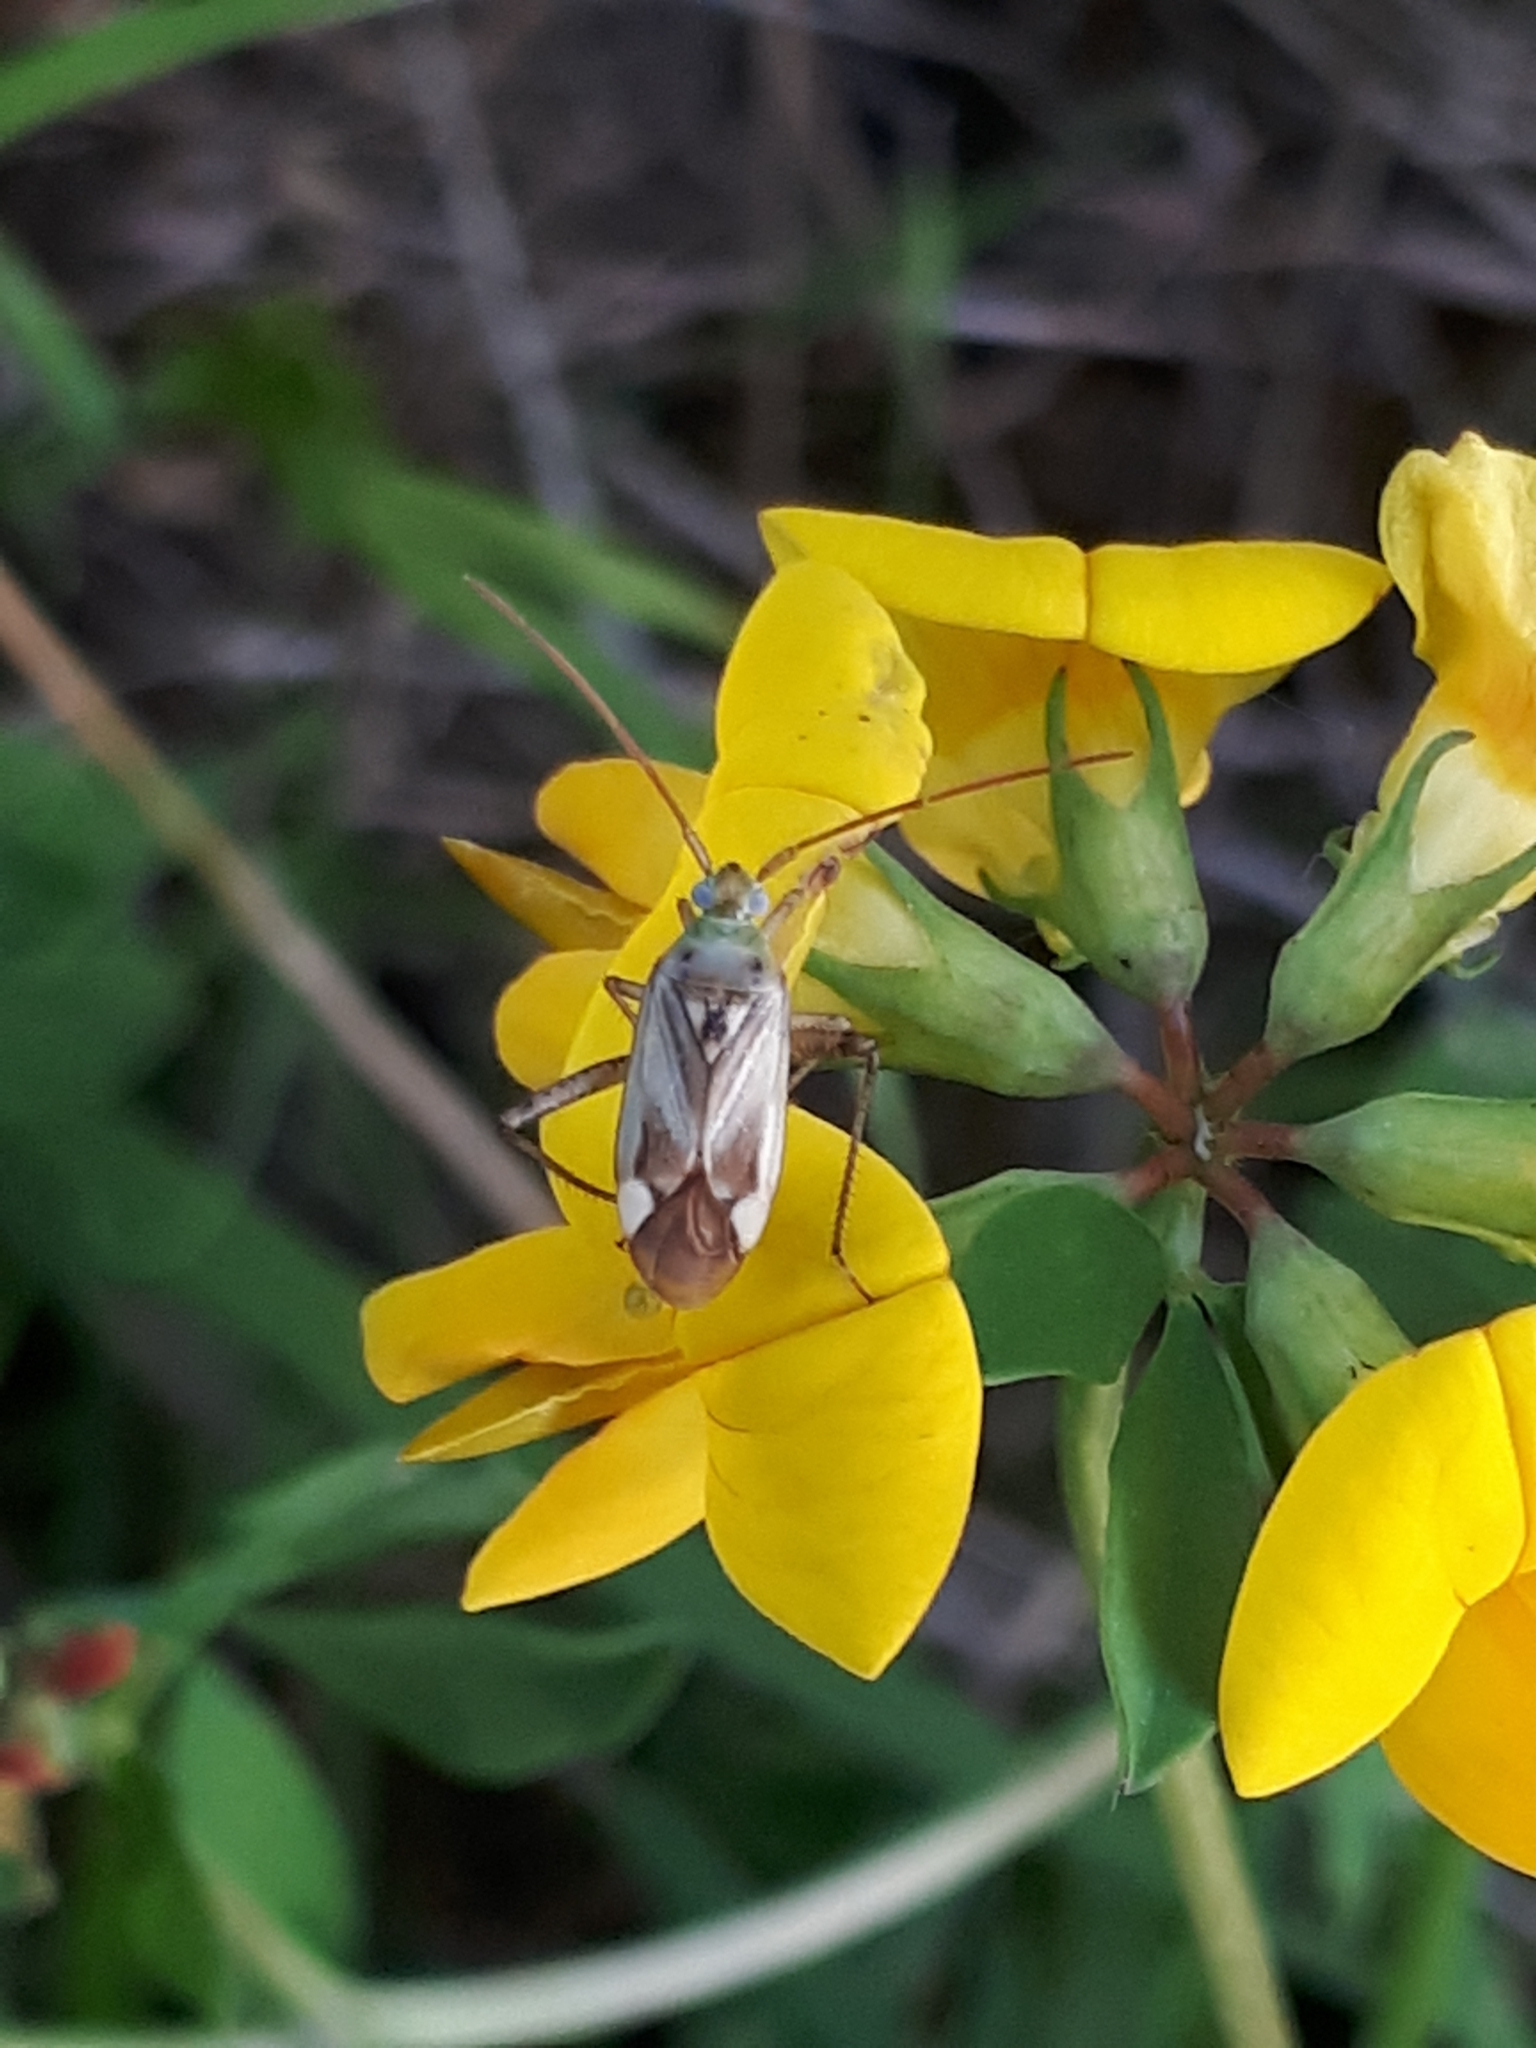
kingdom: Animalia
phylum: Arthropoda
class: Insecta
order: Hemiptera
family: Miridae
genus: Adelphocoris
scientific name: Adelphocoris lineolatus
